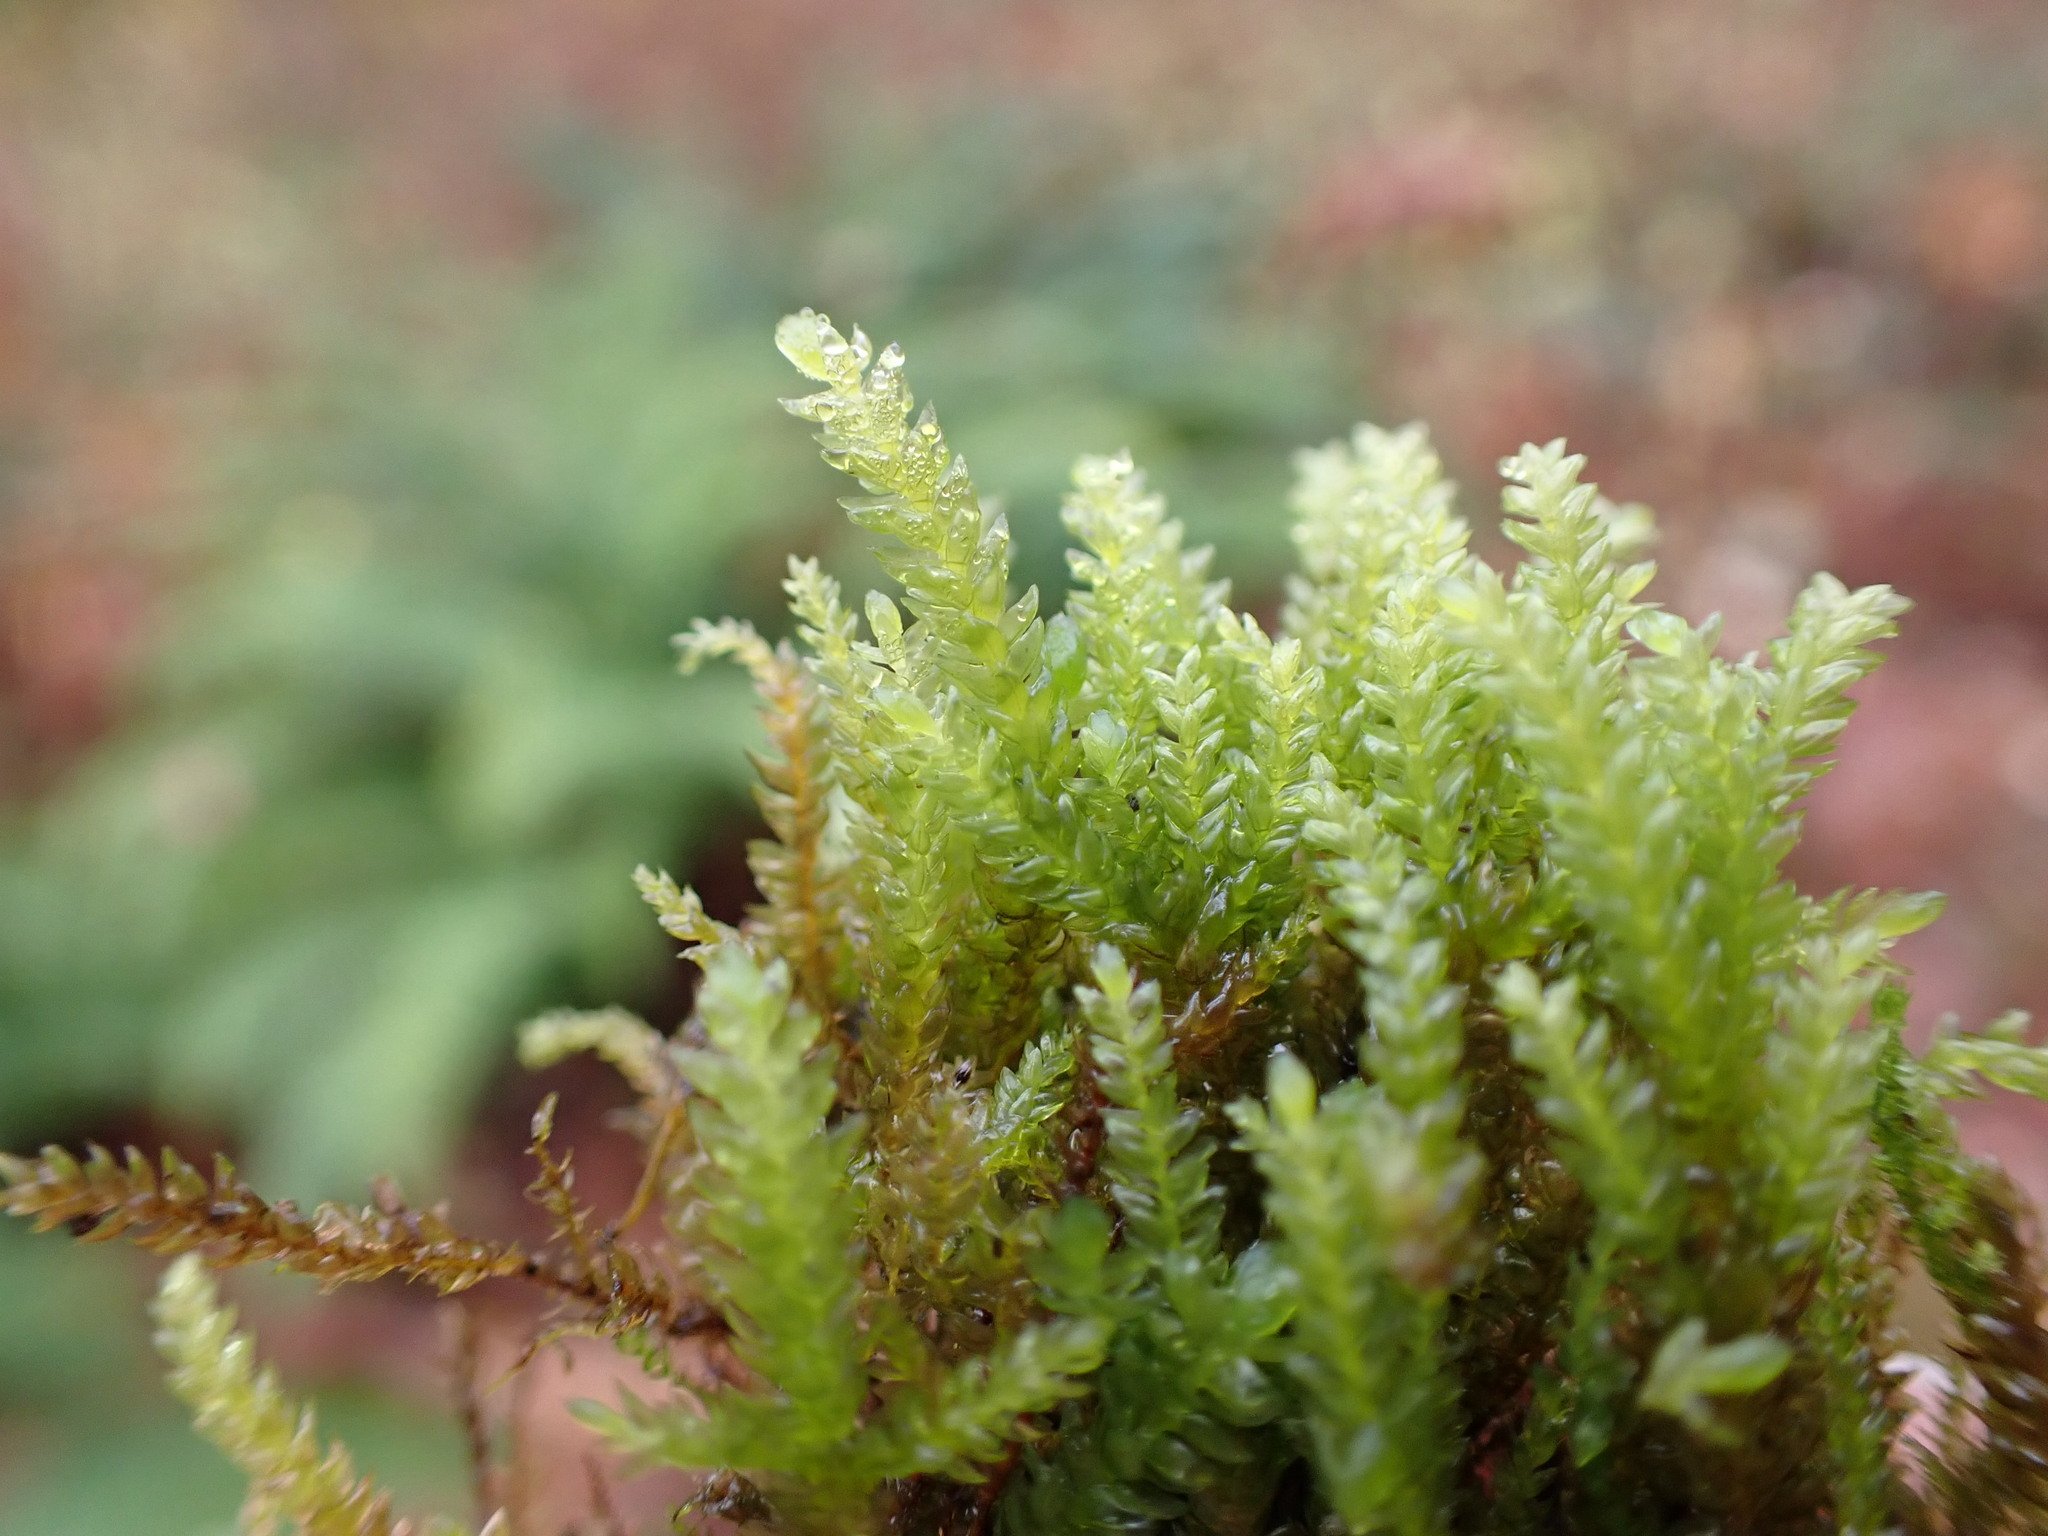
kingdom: Plantae
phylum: Bryophyta
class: Bryopsida
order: Hypnales
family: Neckeraceae
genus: Thamnobryum
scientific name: Thamnobryum neckeroides
